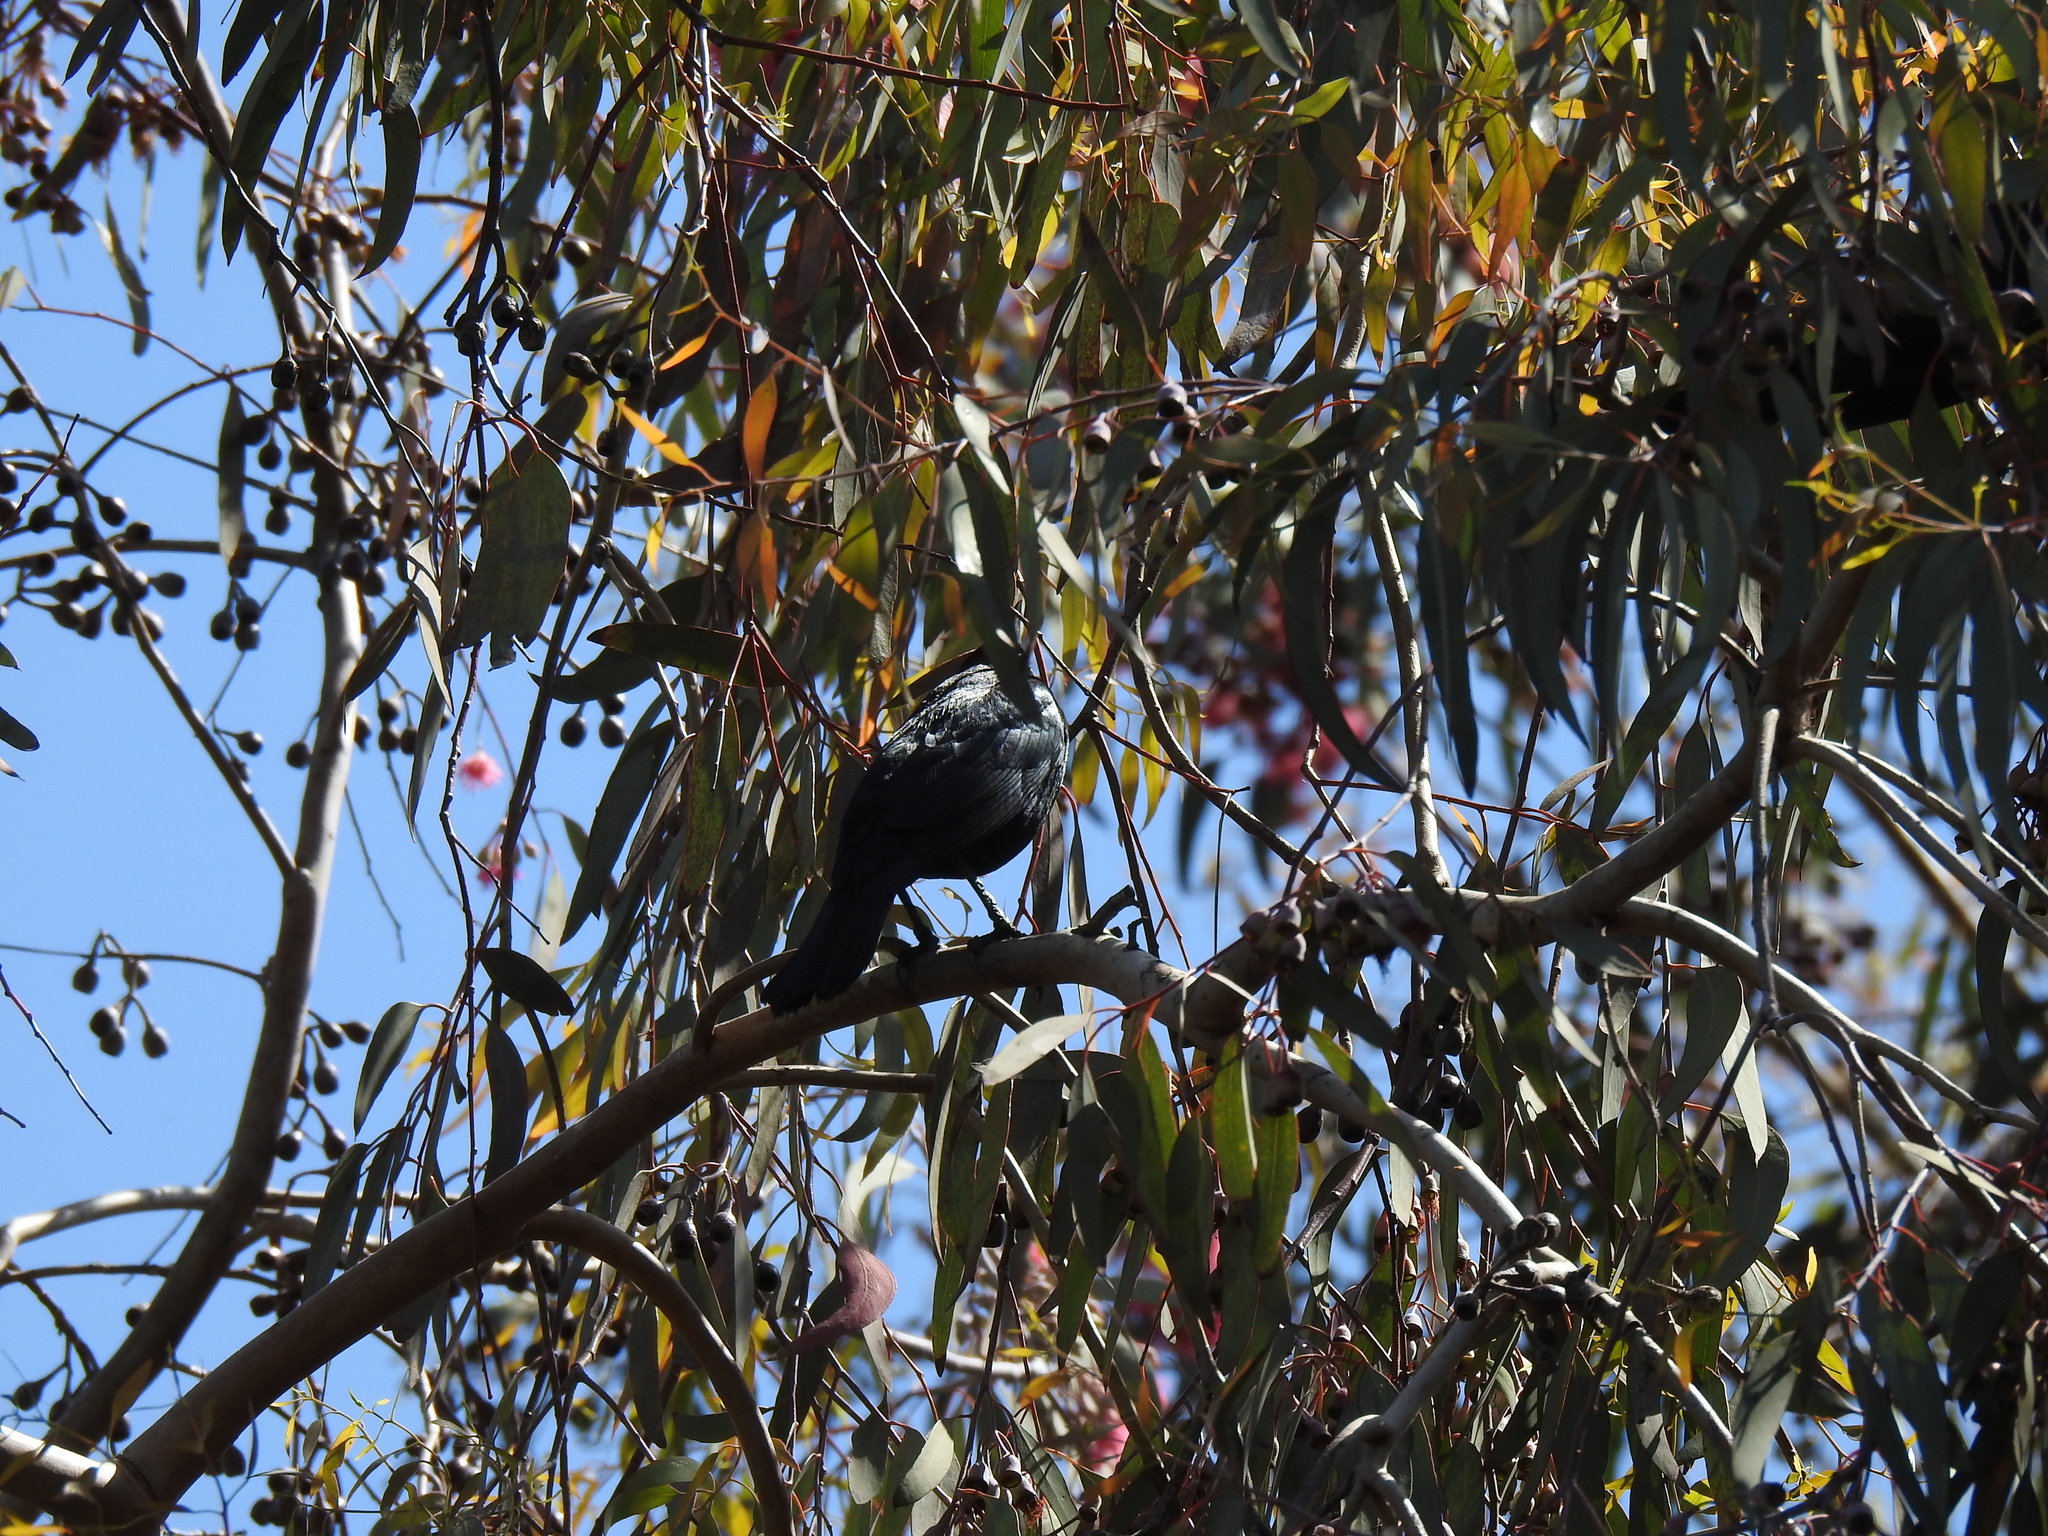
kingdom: Animalia
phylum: Chordata
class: Aves
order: Passeriformes
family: Icteridae
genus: Euphagus
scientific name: Euphagus cyanocephalus
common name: Brewer's blackbird
